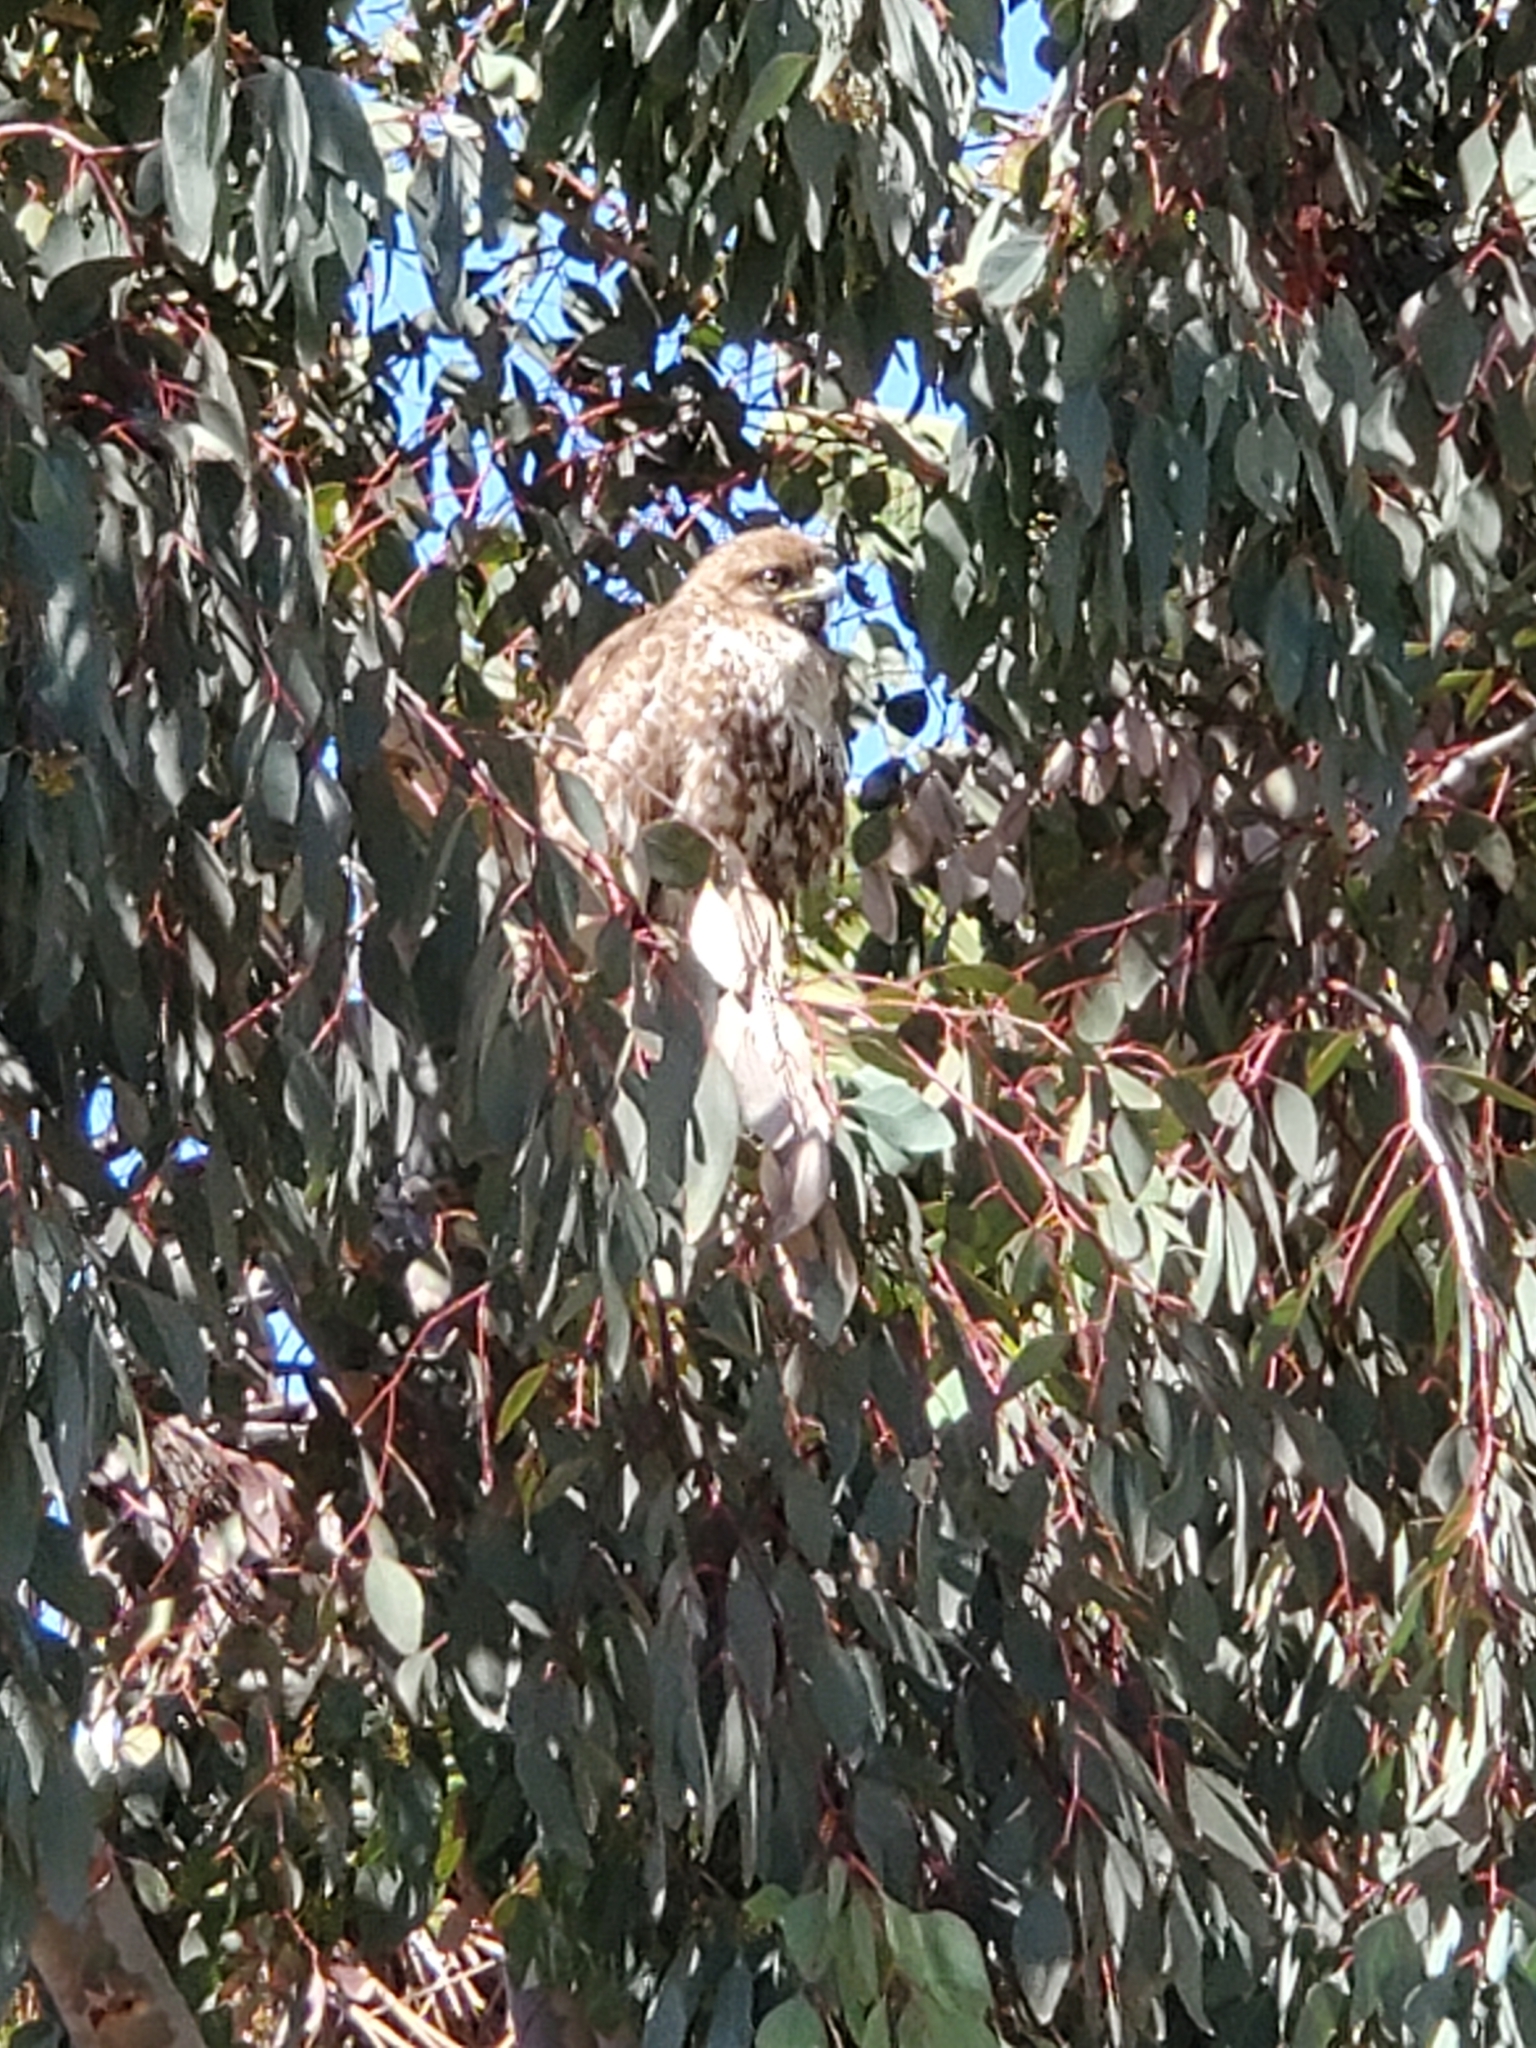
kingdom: Animalia
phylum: Chordata
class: Aves
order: Accipitriformes
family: Accipitridae
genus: Buteo
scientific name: Buteo jamaicensis
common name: Red-tailed hawk
